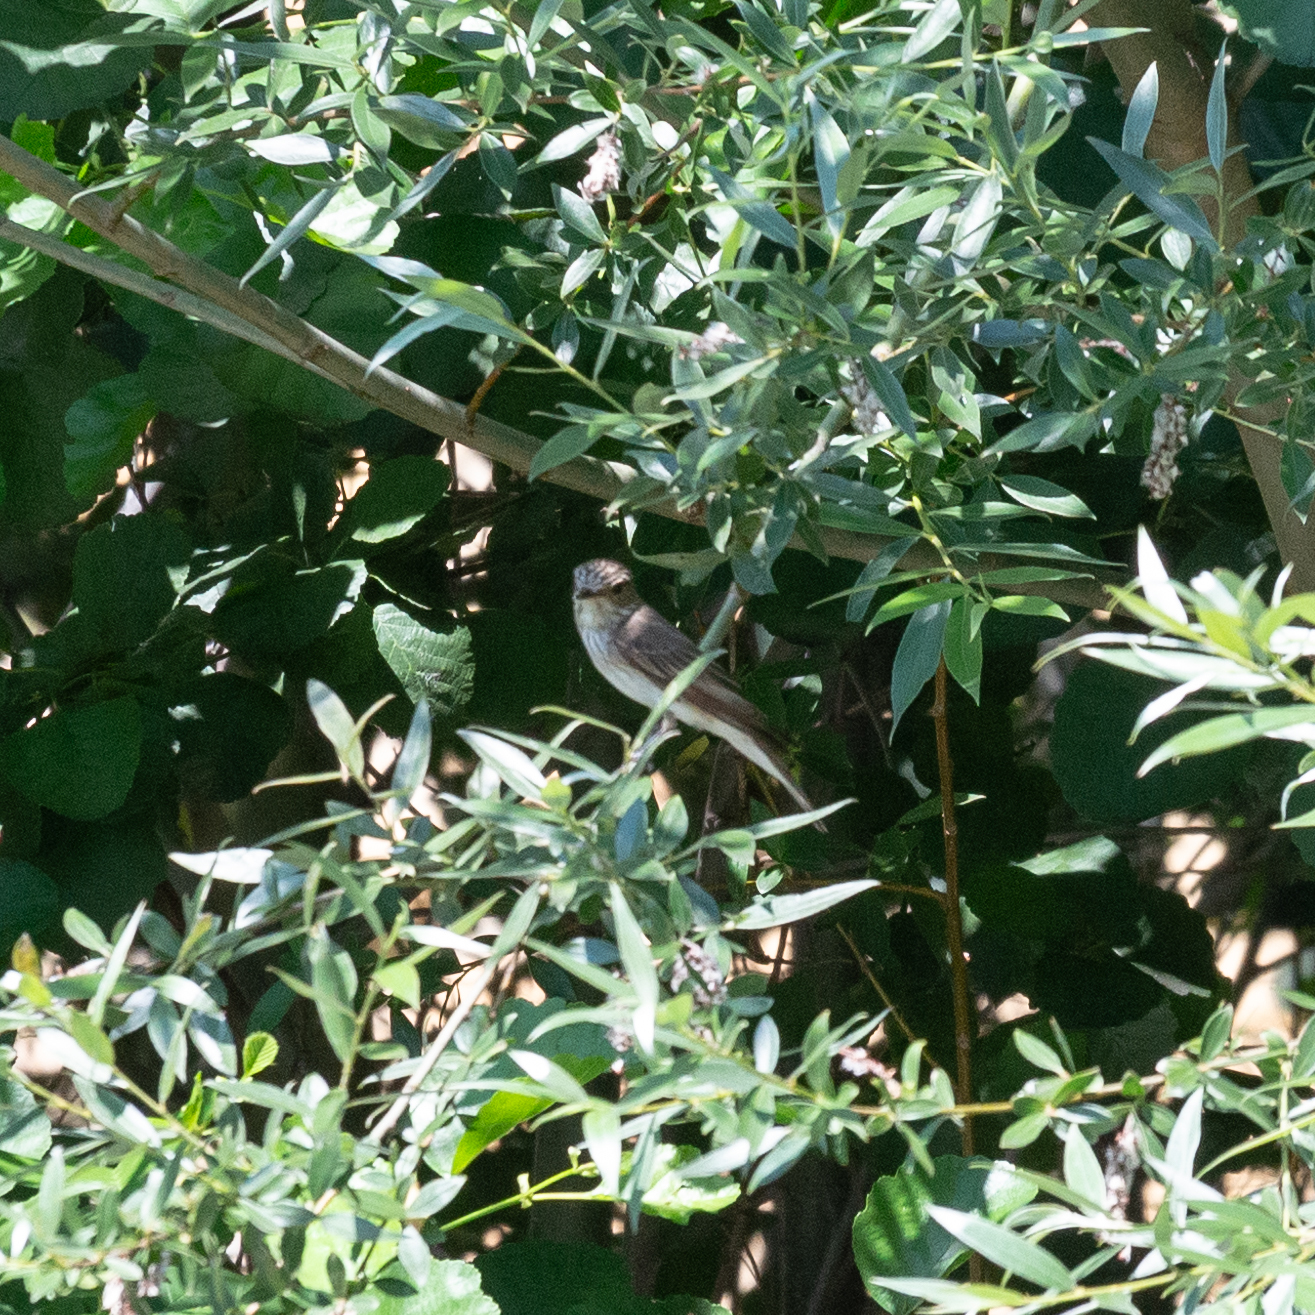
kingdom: Animalia
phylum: Chordata
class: Aves
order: Passeriformes
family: Muscicapidae
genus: Muscicapa
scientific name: Muscicapa striata
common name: Spotted flycatcher
